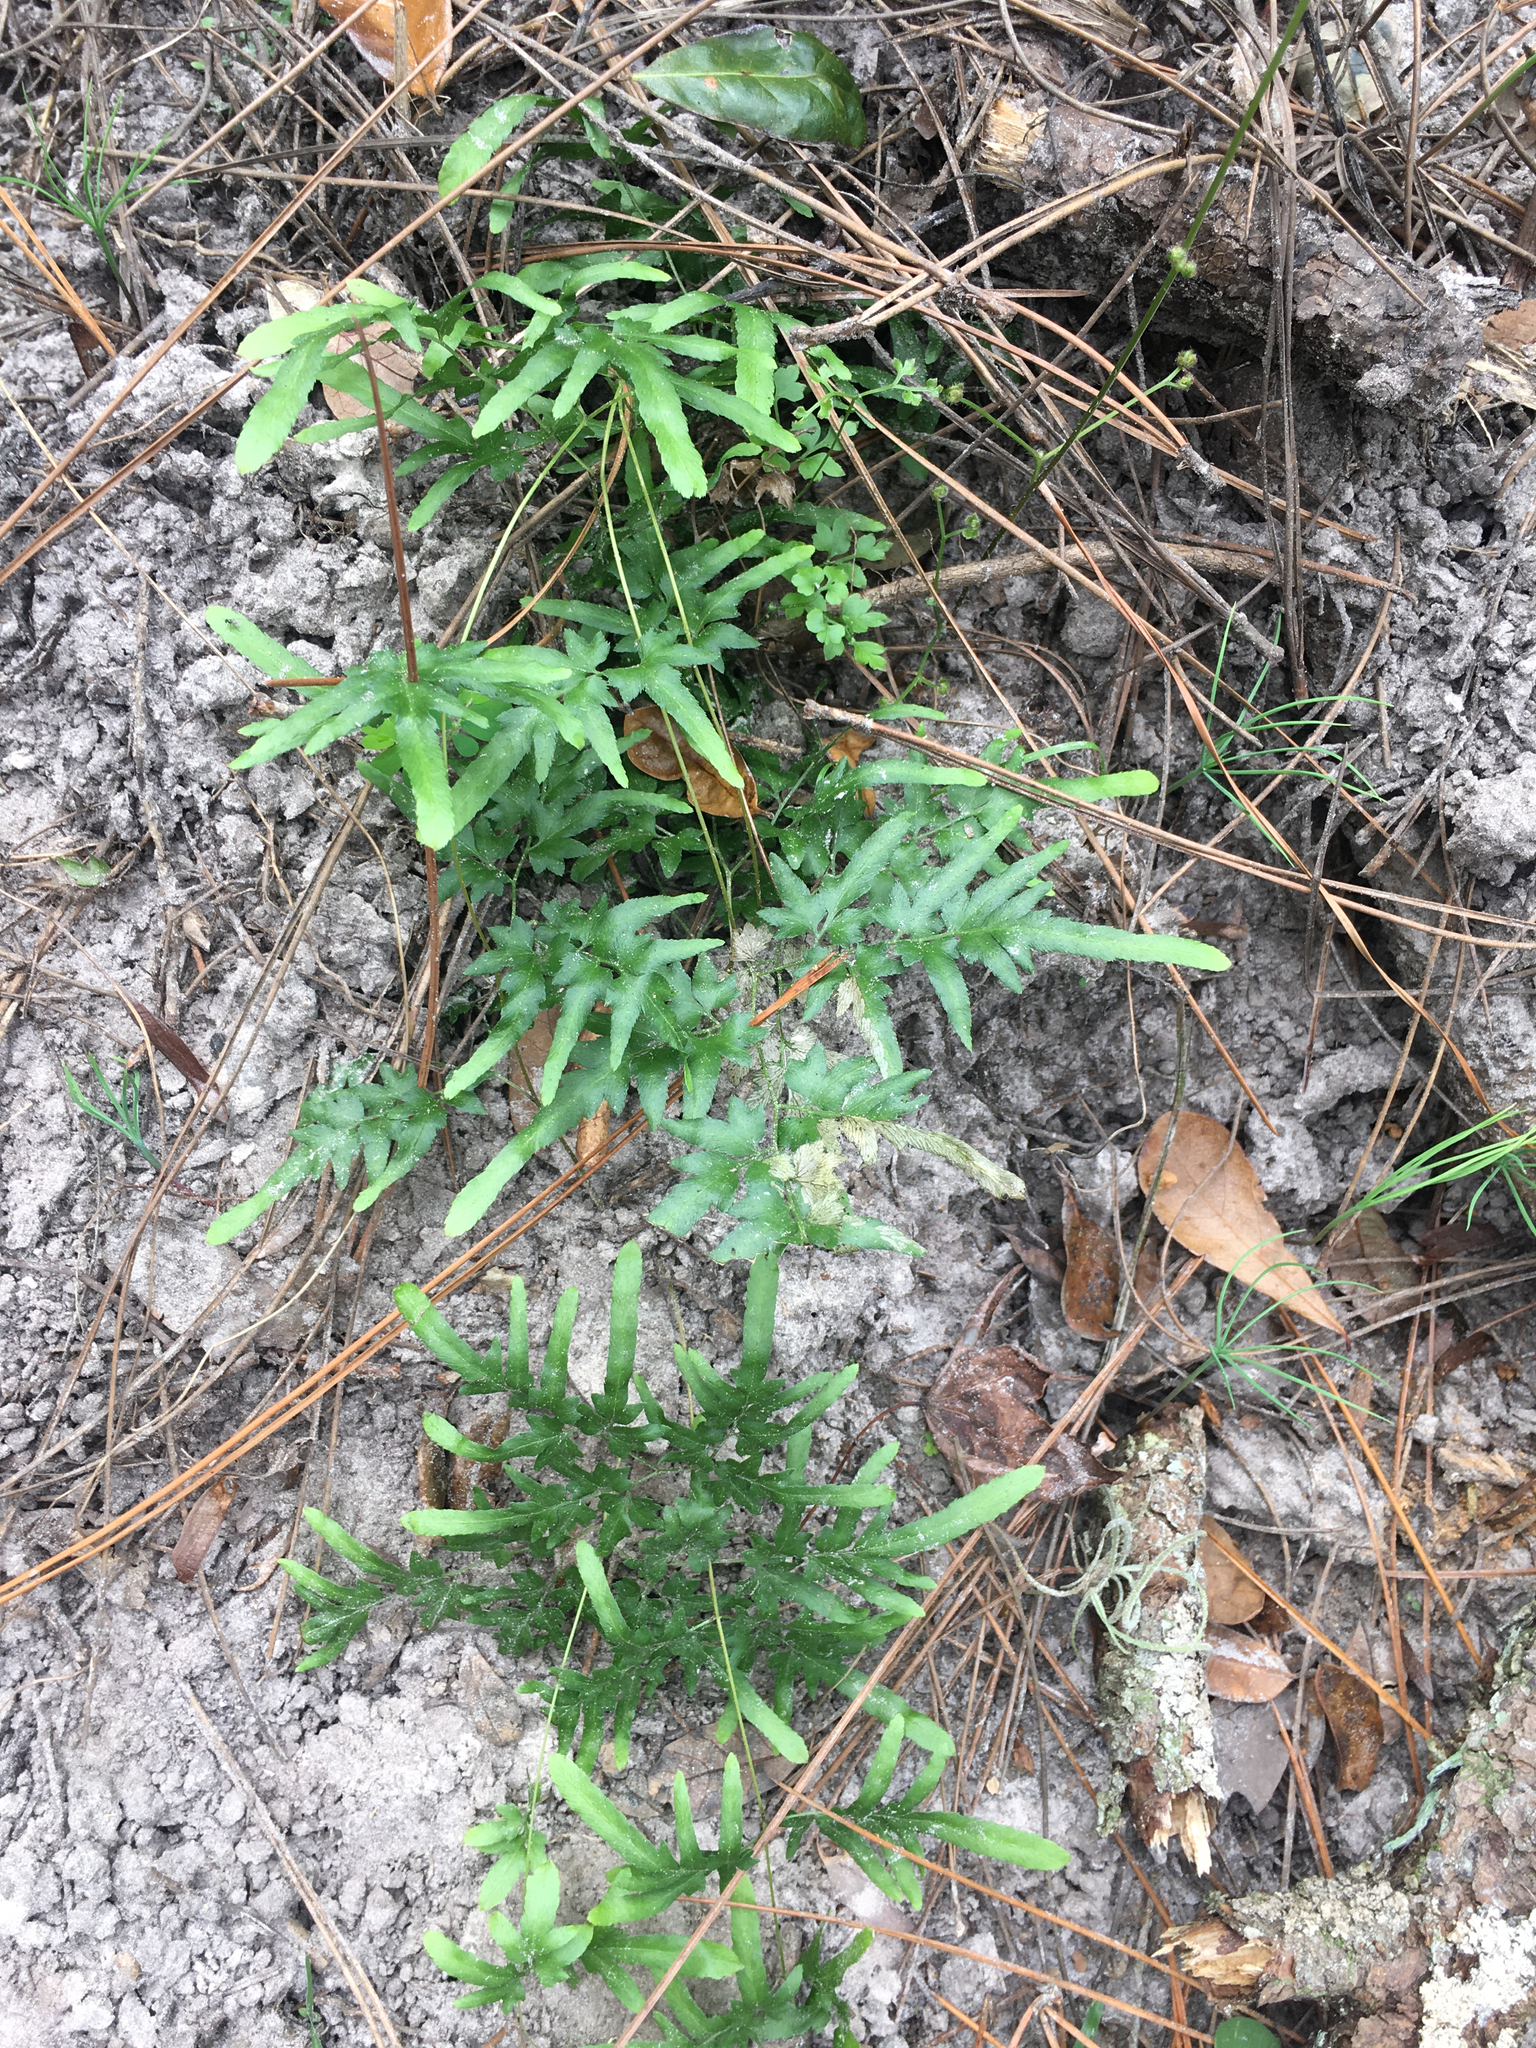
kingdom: Plantae
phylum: Tracheophyta
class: Polypodiopsida
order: Schizaeales
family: Lygodiaceae
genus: Lygodium
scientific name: Lygodium japonicum
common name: Japanese climbing fern
